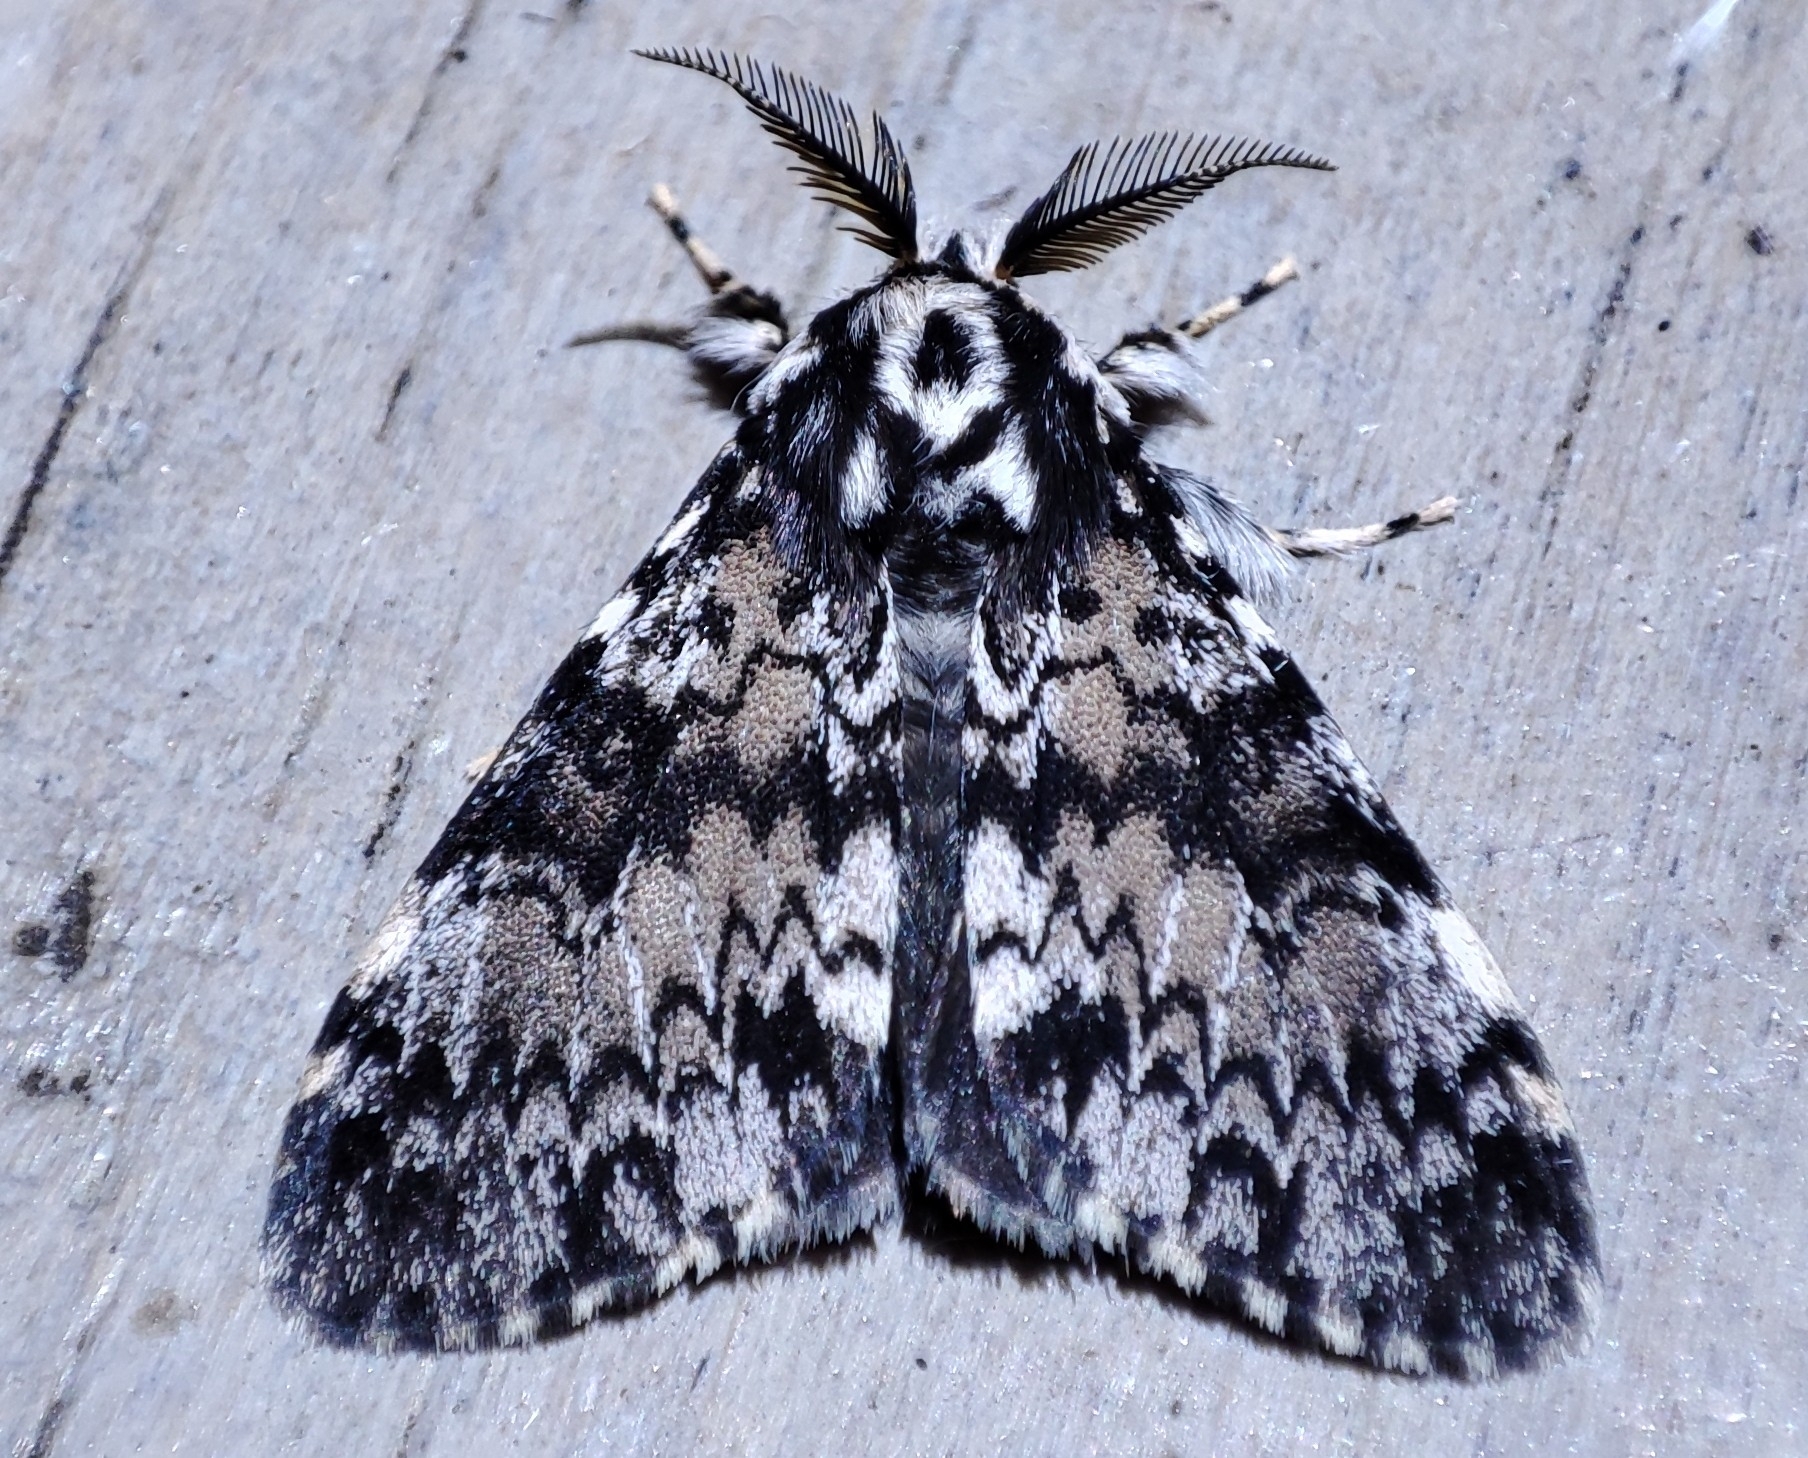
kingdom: Animalia
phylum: Arthropoda
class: Insecta
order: Lepidoptera
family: Erebidae
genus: Lymantria
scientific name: Lymantria kettlewelli
